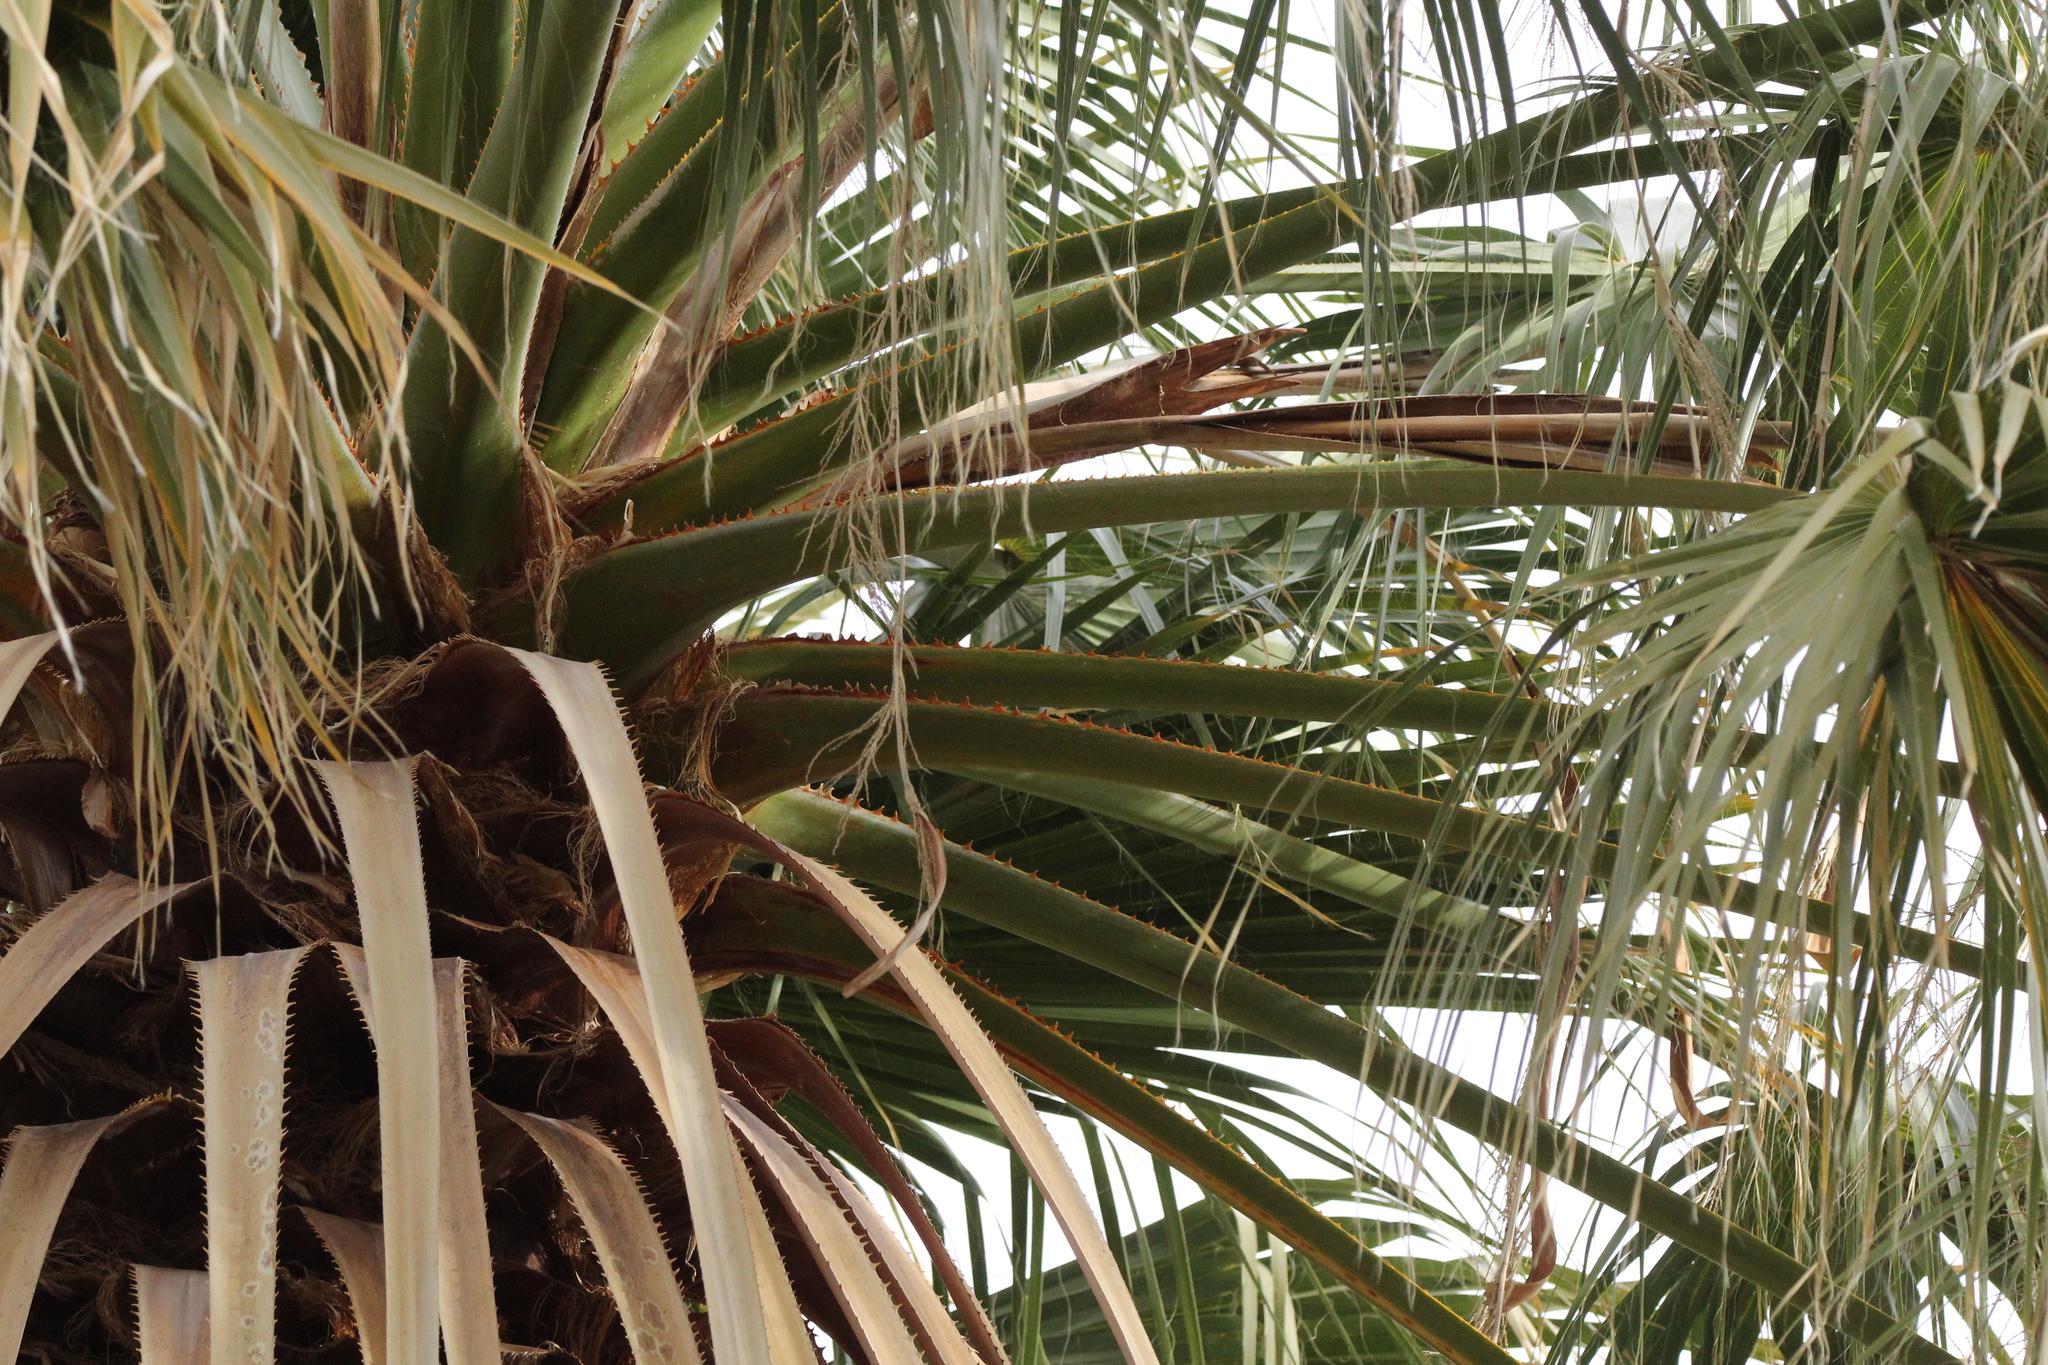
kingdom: Plantae
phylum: Tracheophyta
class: Liliopsida
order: Arecales
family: Arecaceae
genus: Washingtonia
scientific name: Washingtonia filifera
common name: California fan palm
